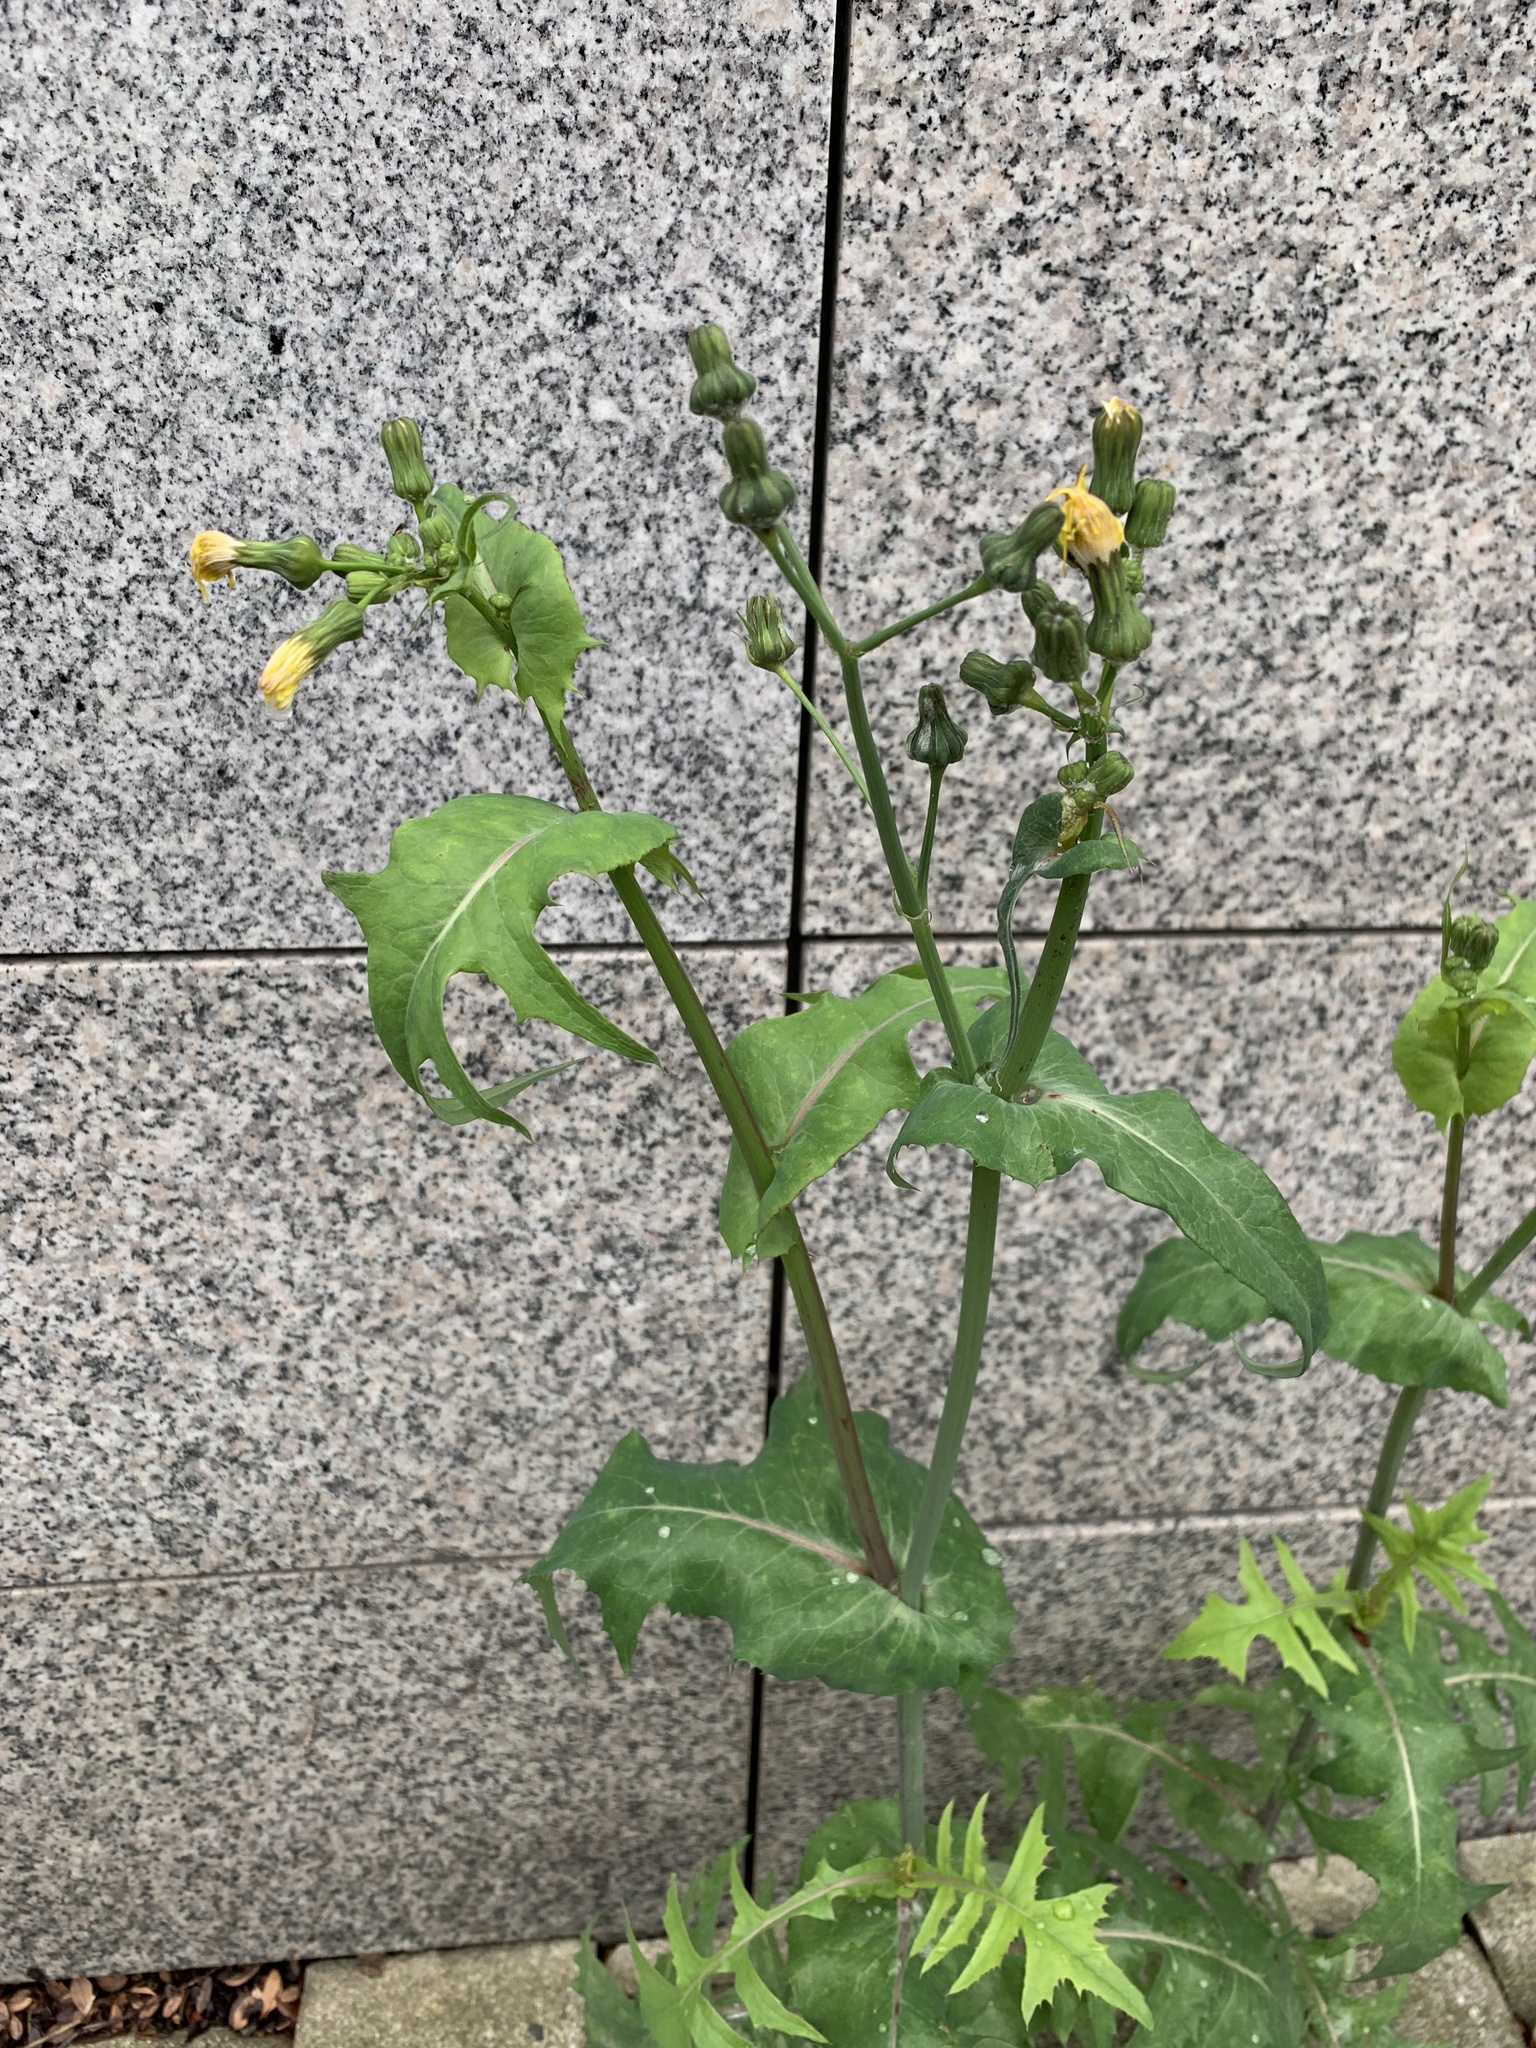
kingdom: Plantae
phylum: Tracheophyta
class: Magnoliopsida
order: Asterales
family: Asteraceae
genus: Sonchus
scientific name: Sonchus oleraceus
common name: Common sowthistle
